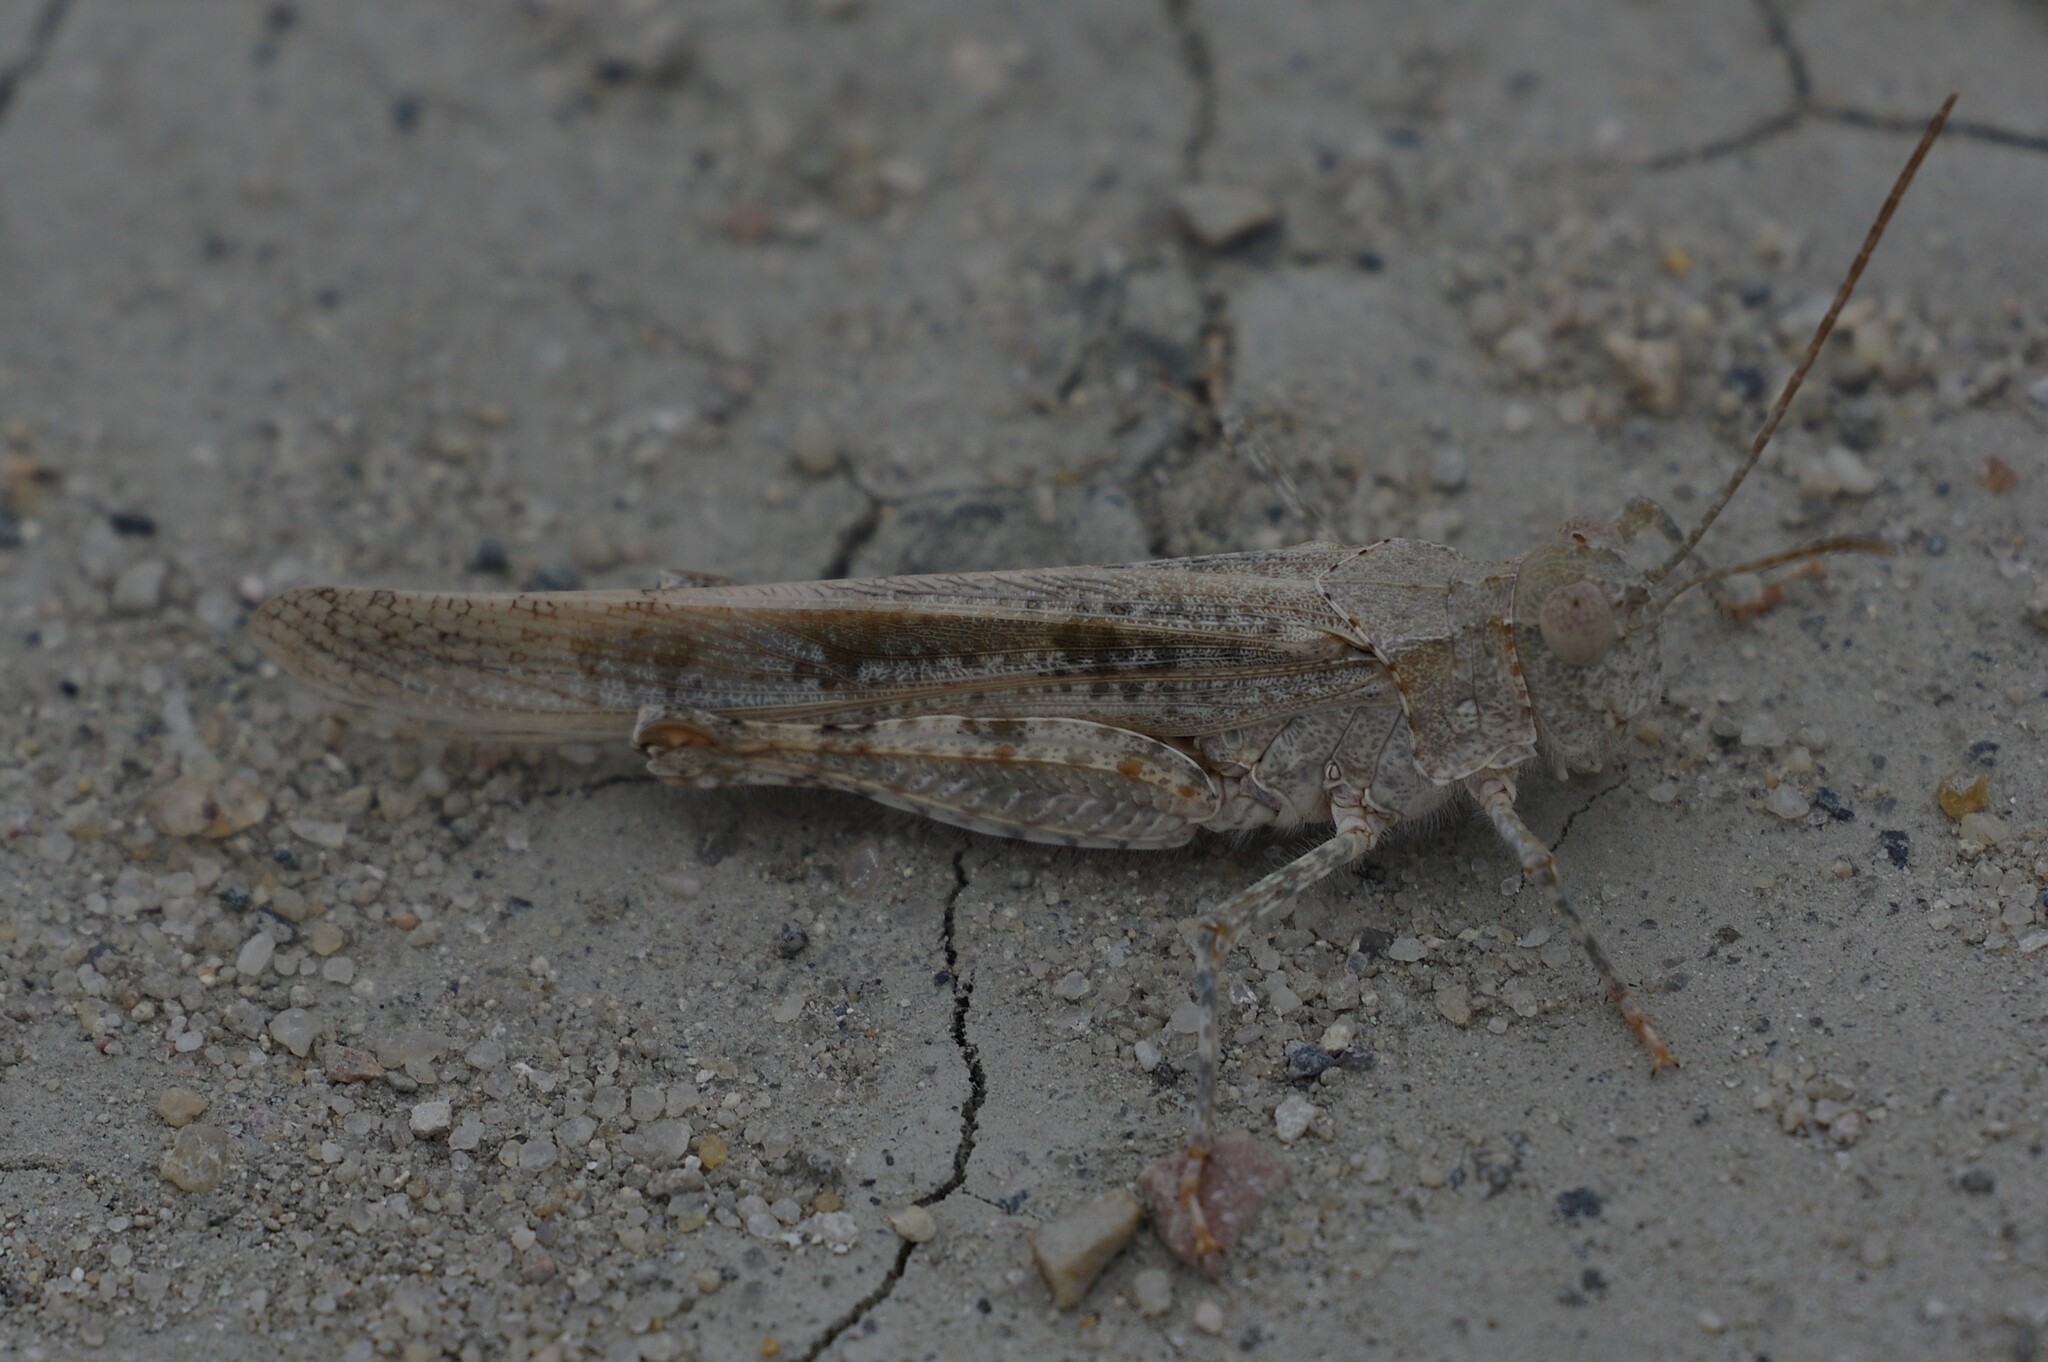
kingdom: Animalia
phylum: Arthropoda
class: Insecta
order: Orthoptera
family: Acrididae
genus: Trimerotropis
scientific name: Trimerotropis maritima
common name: Seaside locust
